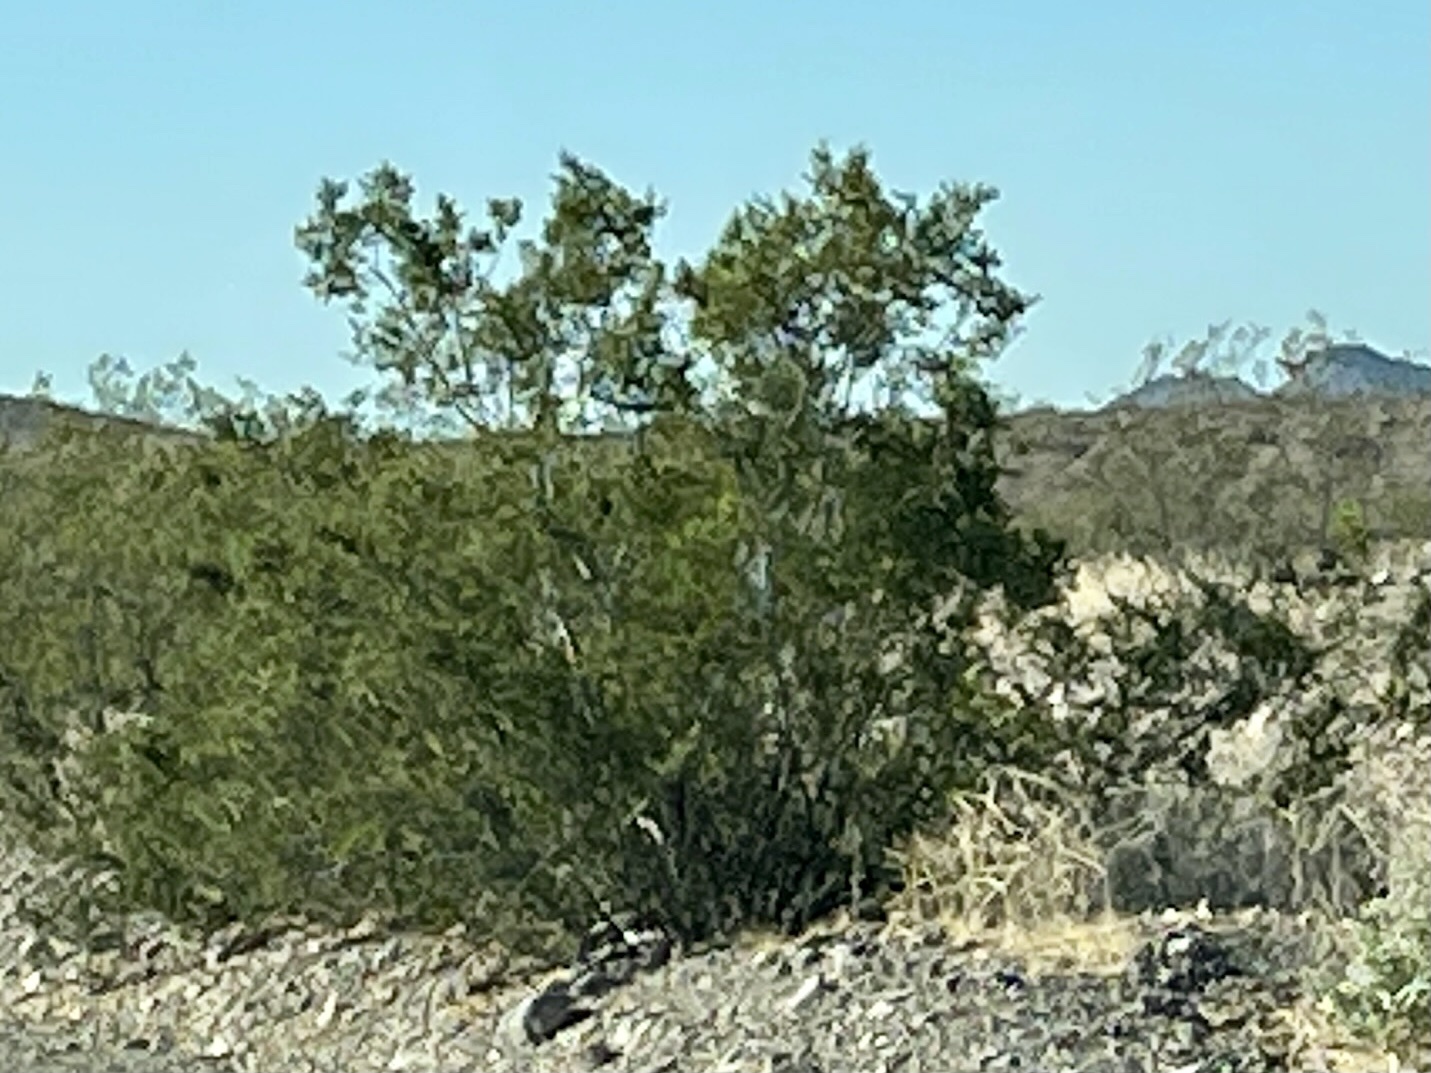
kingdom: Plantae
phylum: Tracheophyta
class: Magnoliopsida
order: Zygophyllales
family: Zygophyllaceae
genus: Larrea
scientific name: Larrea tridentata
